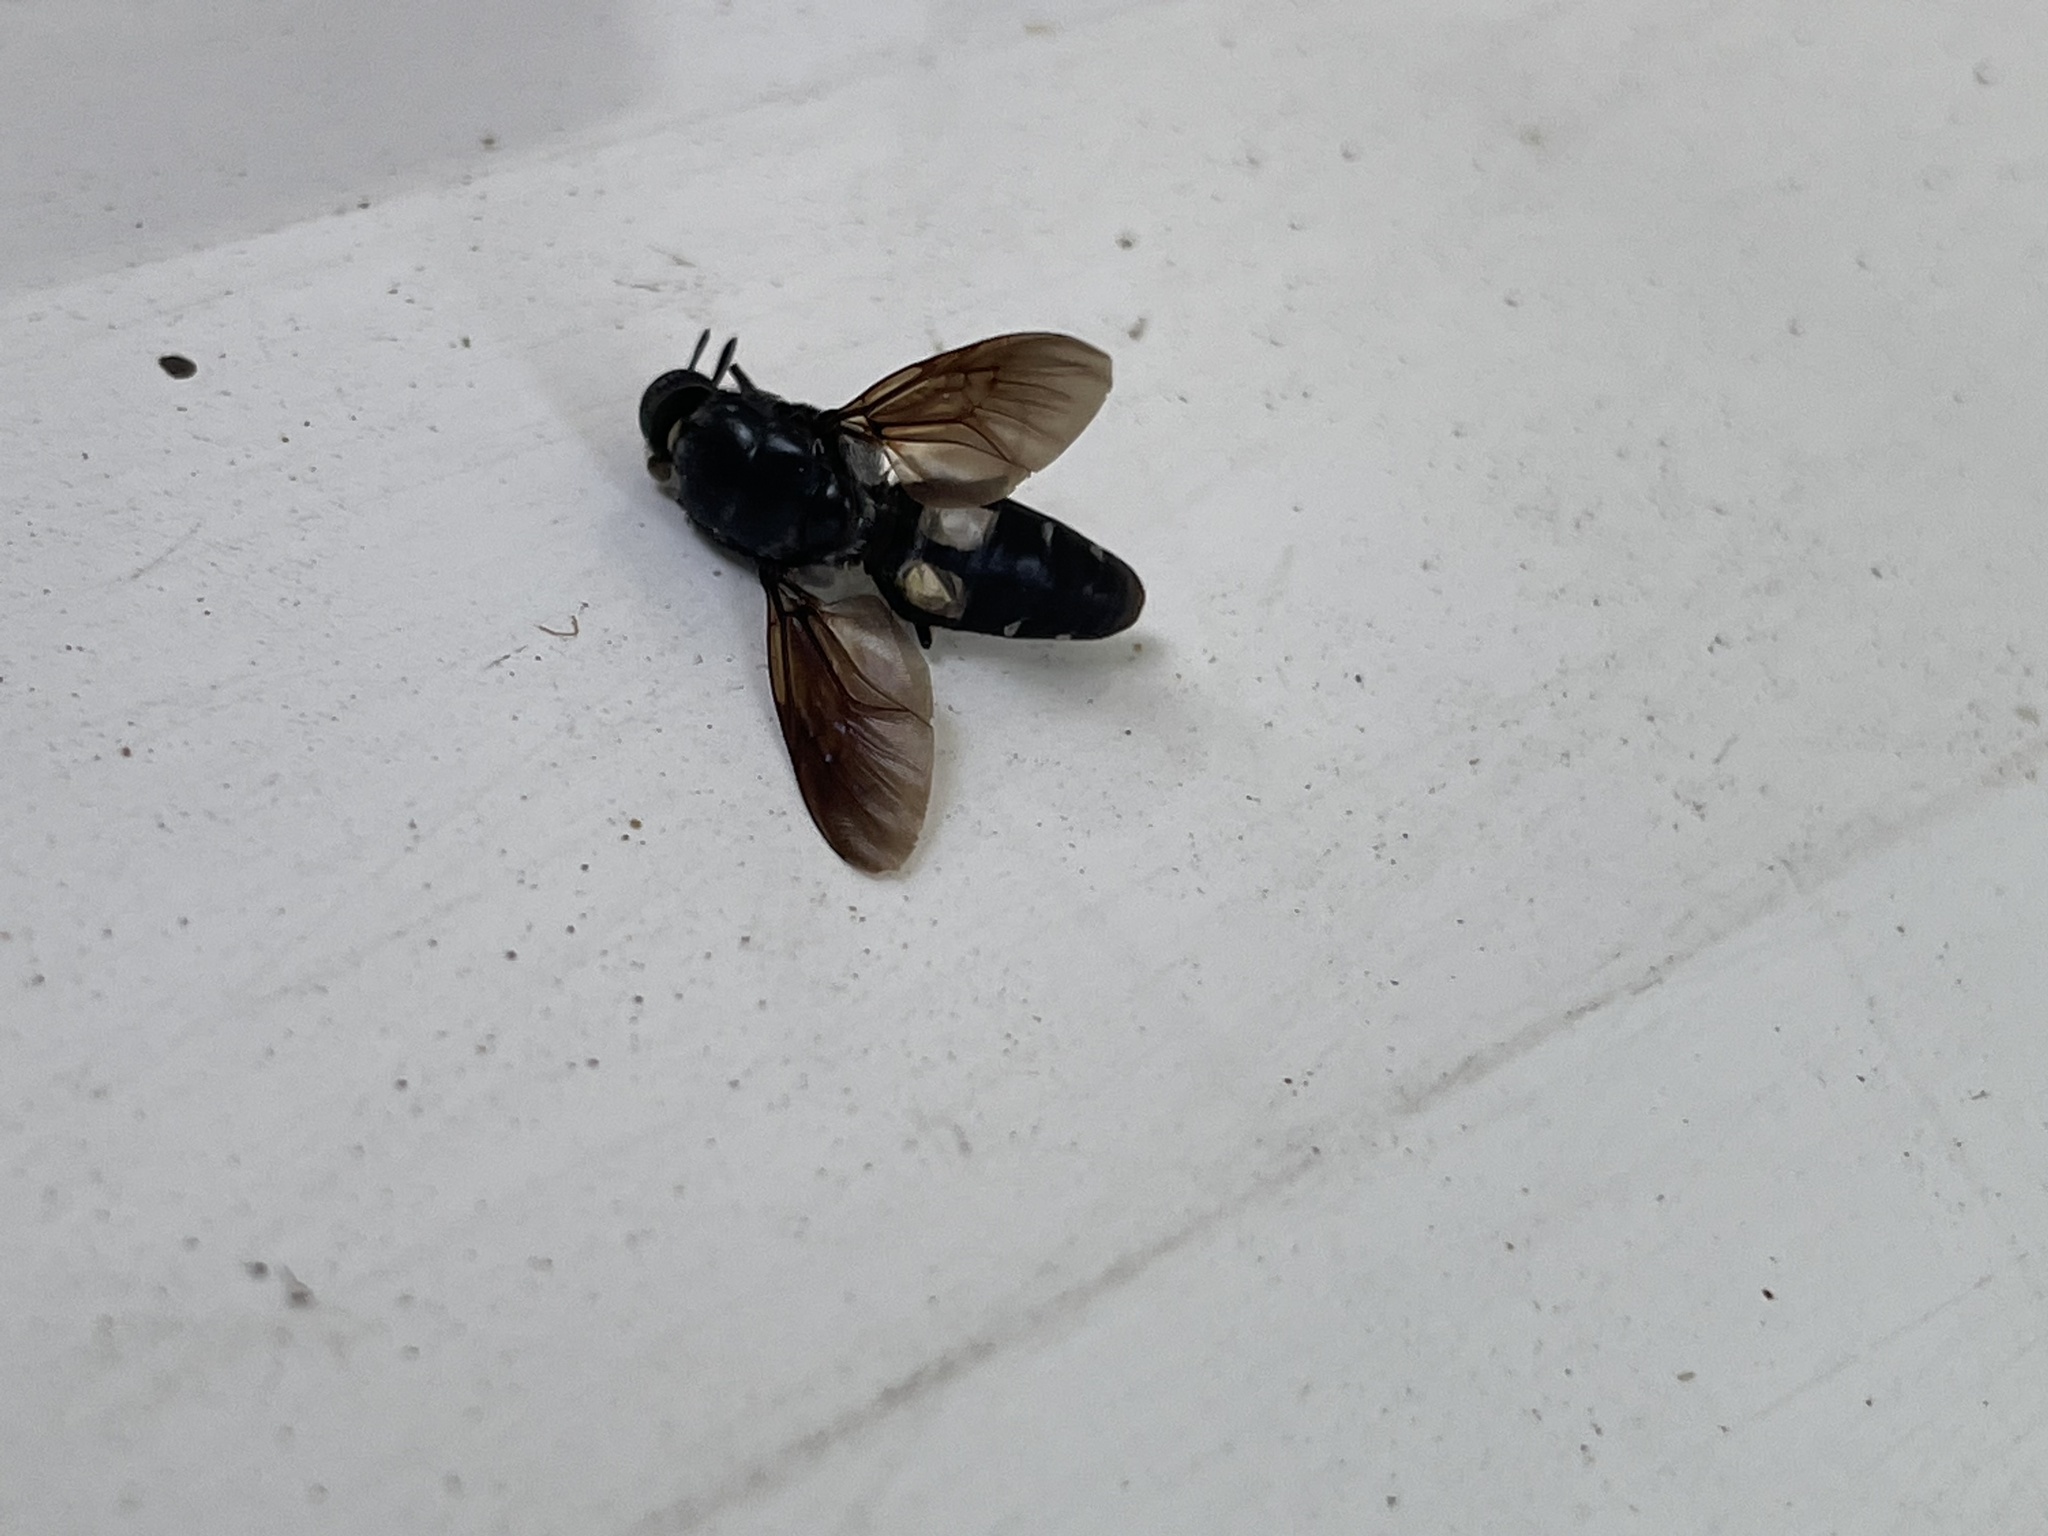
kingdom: Animalia
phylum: Arthropoda
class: Insecta
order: Diptera
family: Stratiomyidae
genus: Hermetia
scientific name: Hermetia illucens
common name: Black soldier fly
